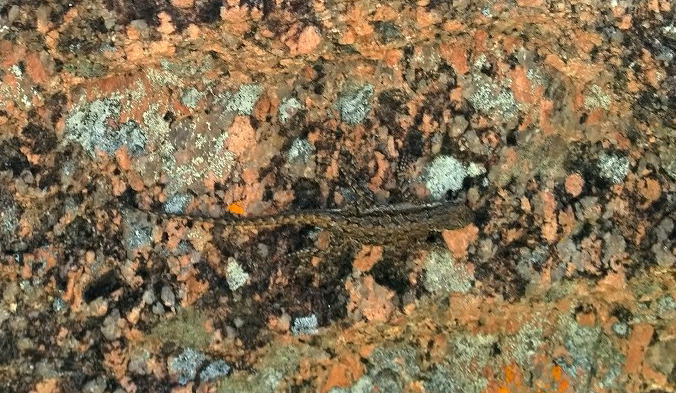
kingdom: Animalia
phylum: Chordata
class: Squamata
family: Phrynosomatidae
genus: Urosaurus
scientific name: Urosaurus ornatus
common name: Ornate tree lizard
